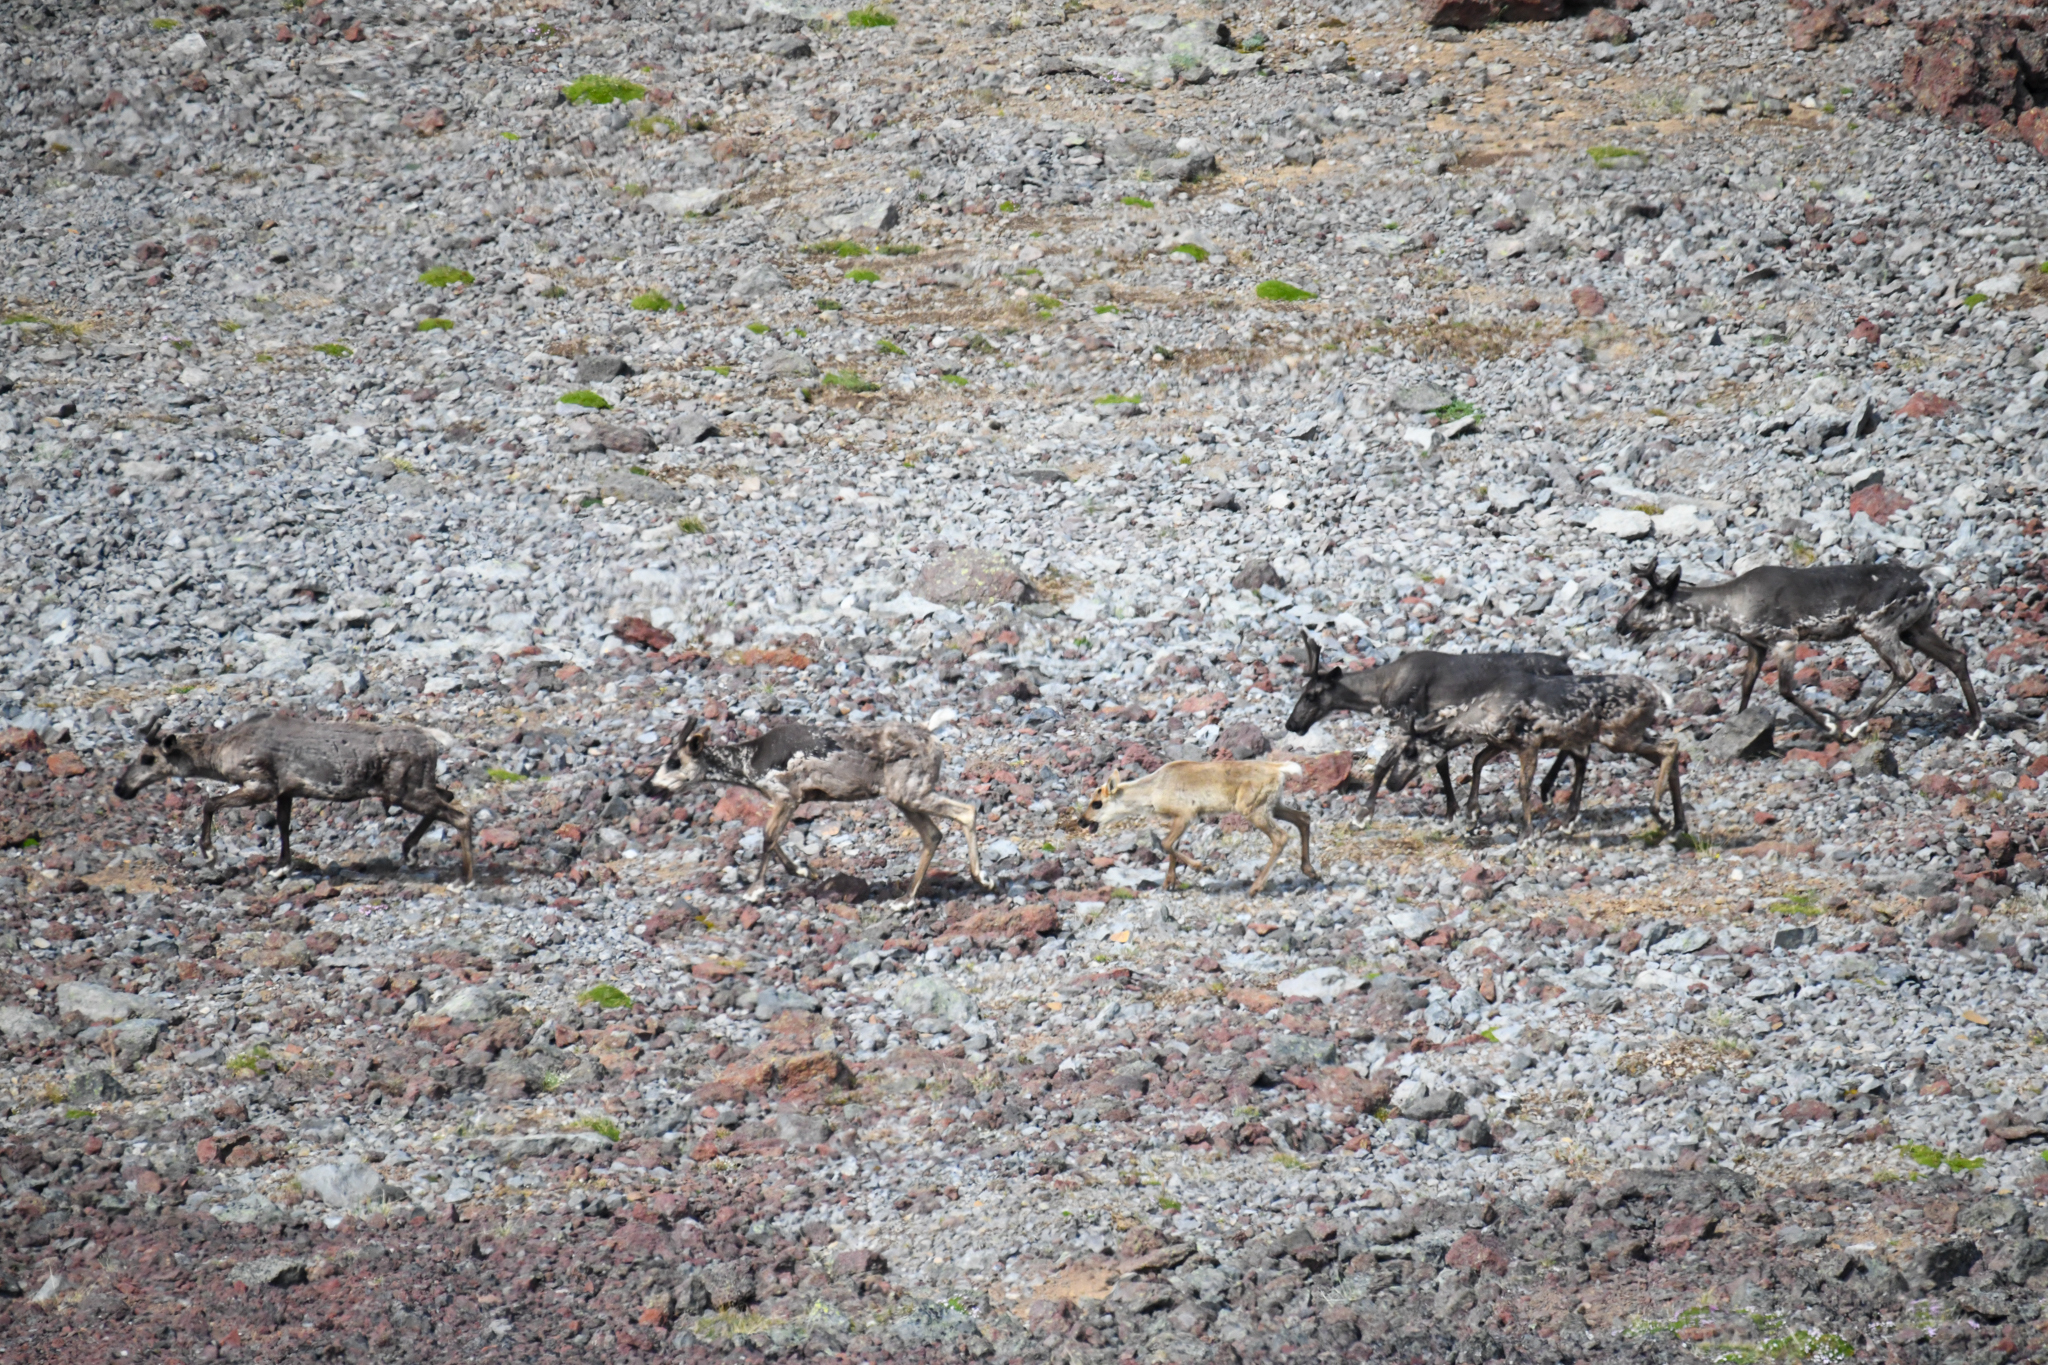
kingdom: Animalia
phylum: Chordata
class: Mammalia
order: Artiodactyla
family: Cervidae
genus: Rangifer
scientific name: Rangifer tarandus
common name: Reindeer
